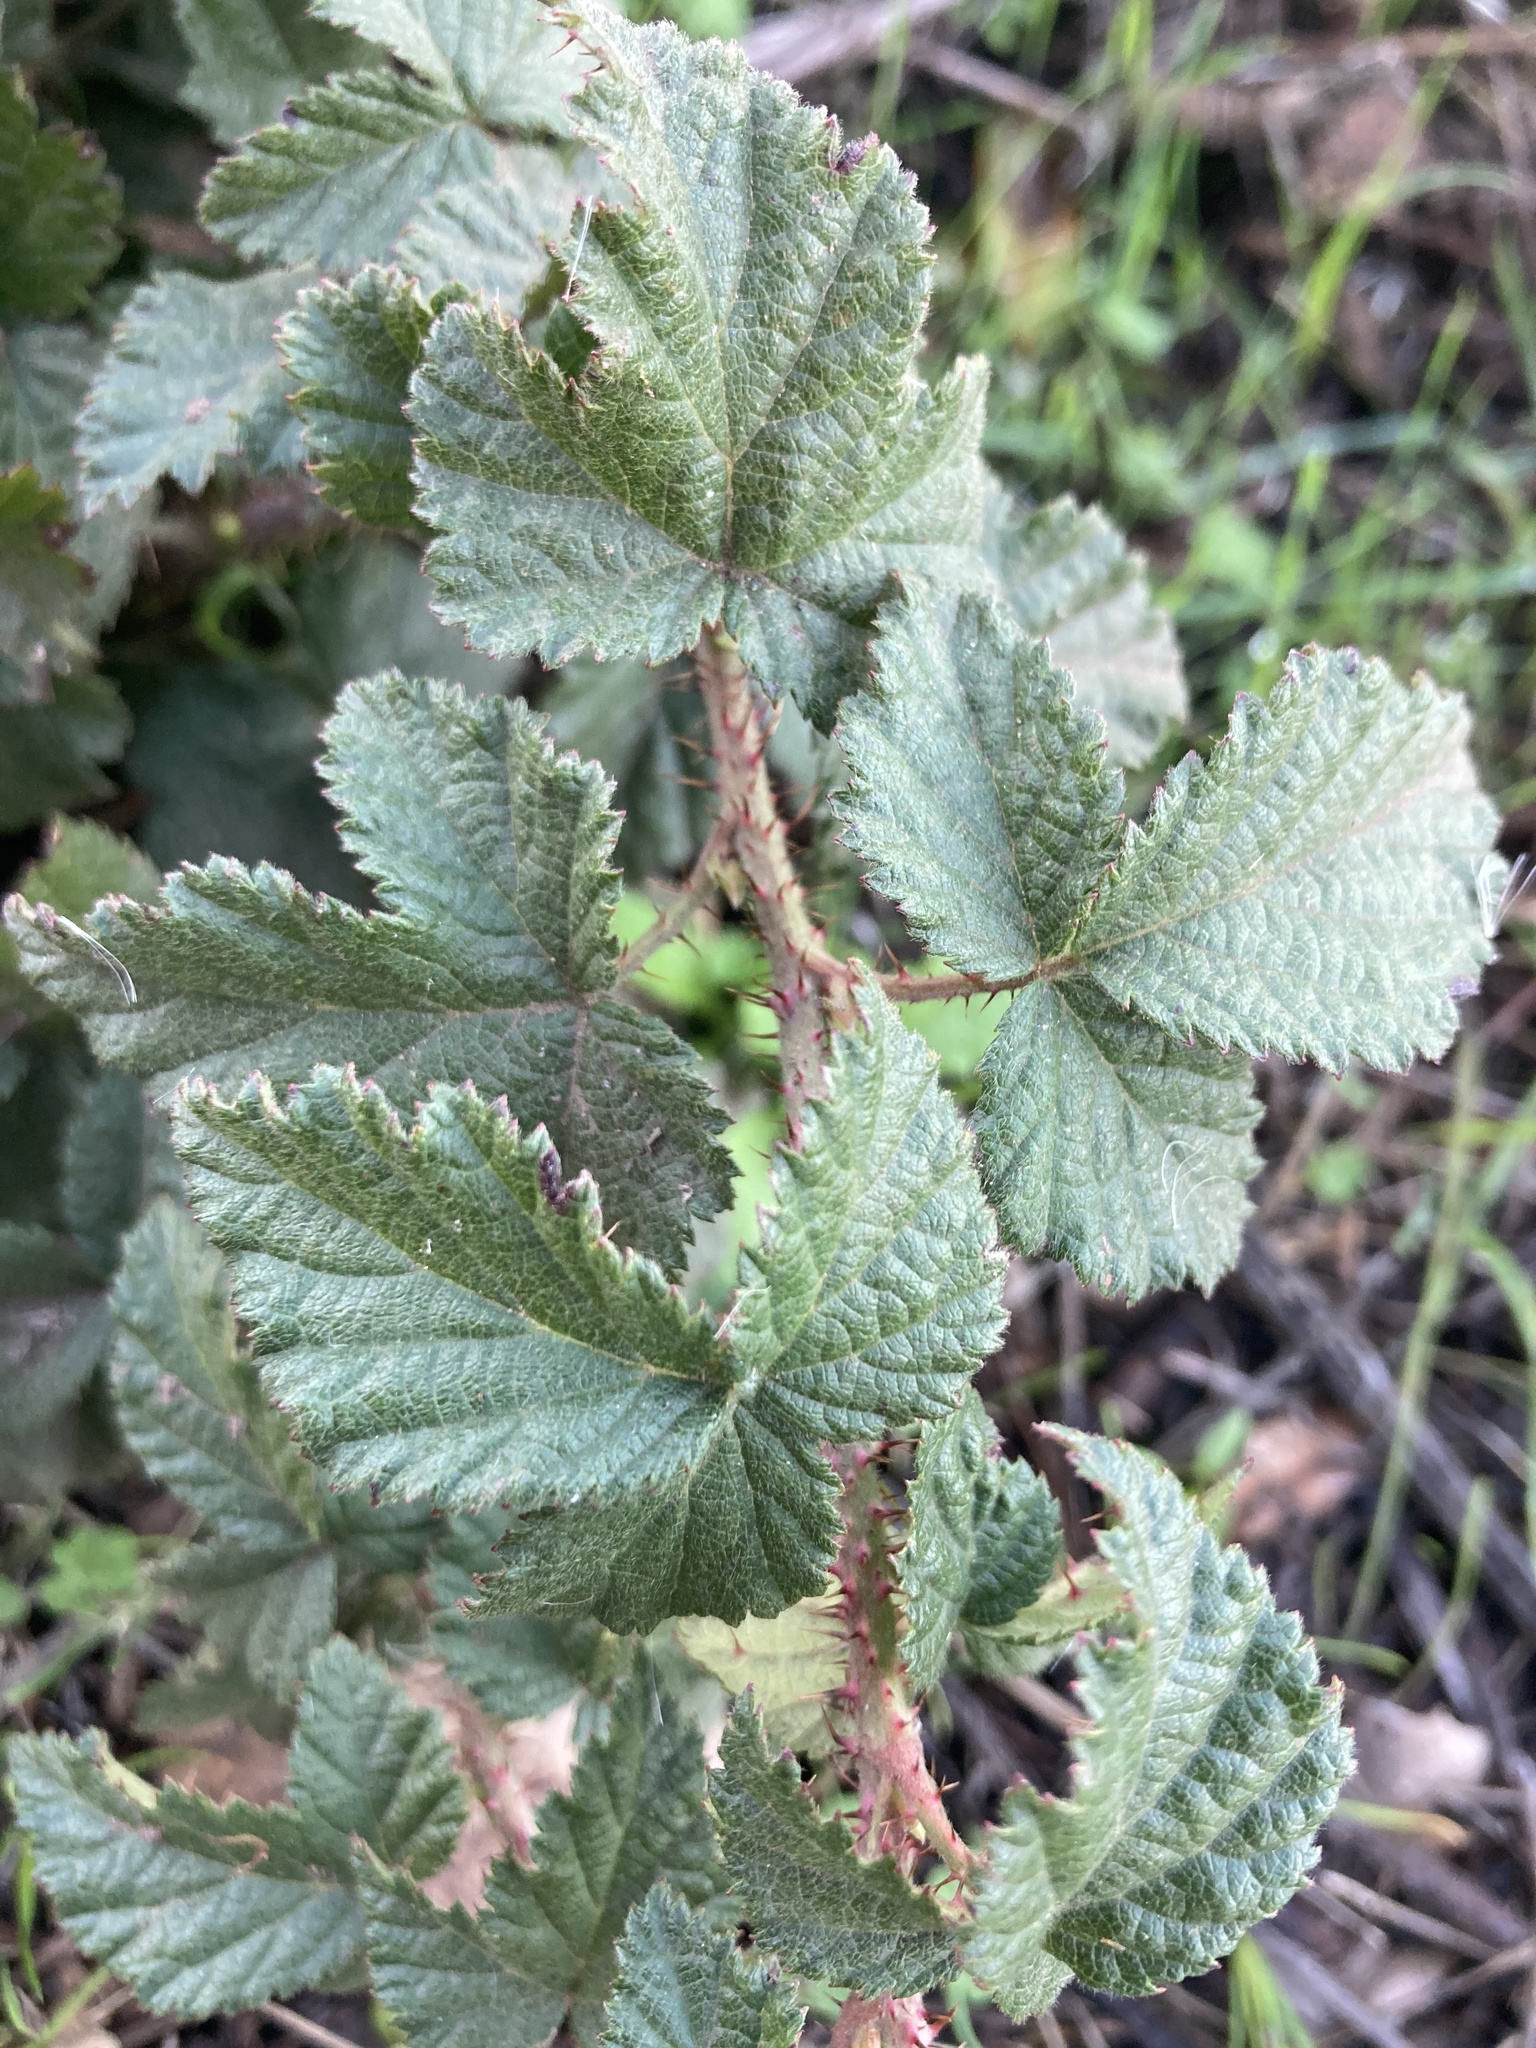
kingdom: Plantae
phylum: Tracheophyta
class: Magnoliopsida
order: Rosales
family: Rosaceae
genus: Rubus
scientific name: Rubus ursinus
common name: Pacific blackberry
